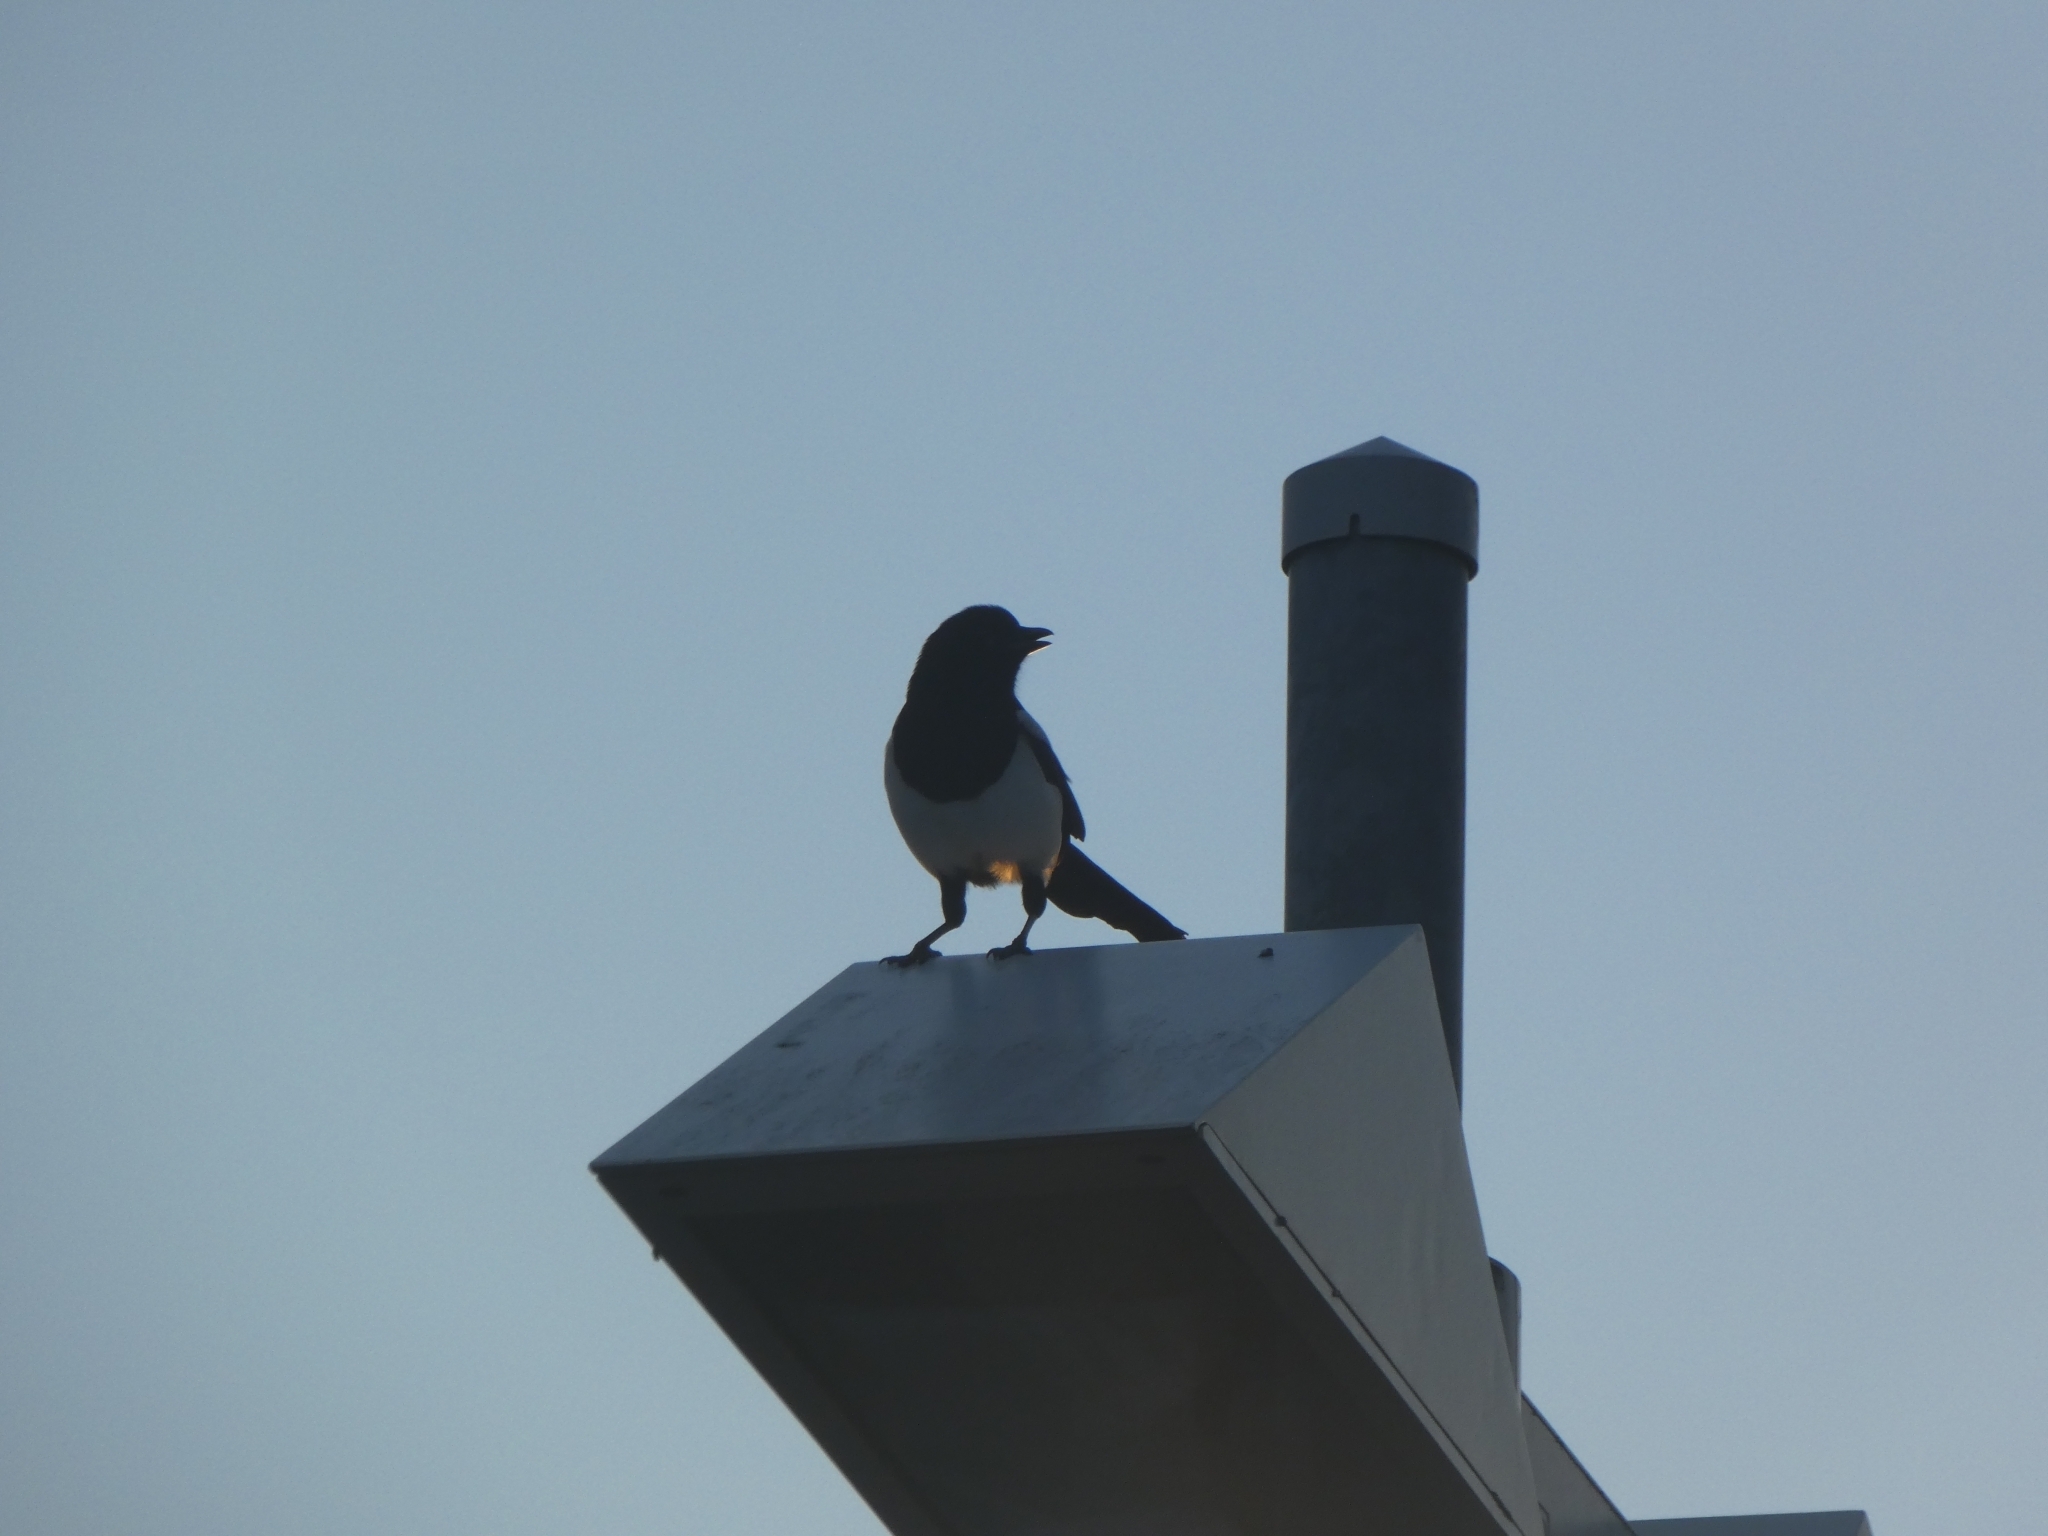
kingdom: Animalia
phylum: Chordata
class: Aves
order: Passeriformes
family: Corvidae
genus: Pica
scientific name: Pica pica
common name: Eurasian magpie
